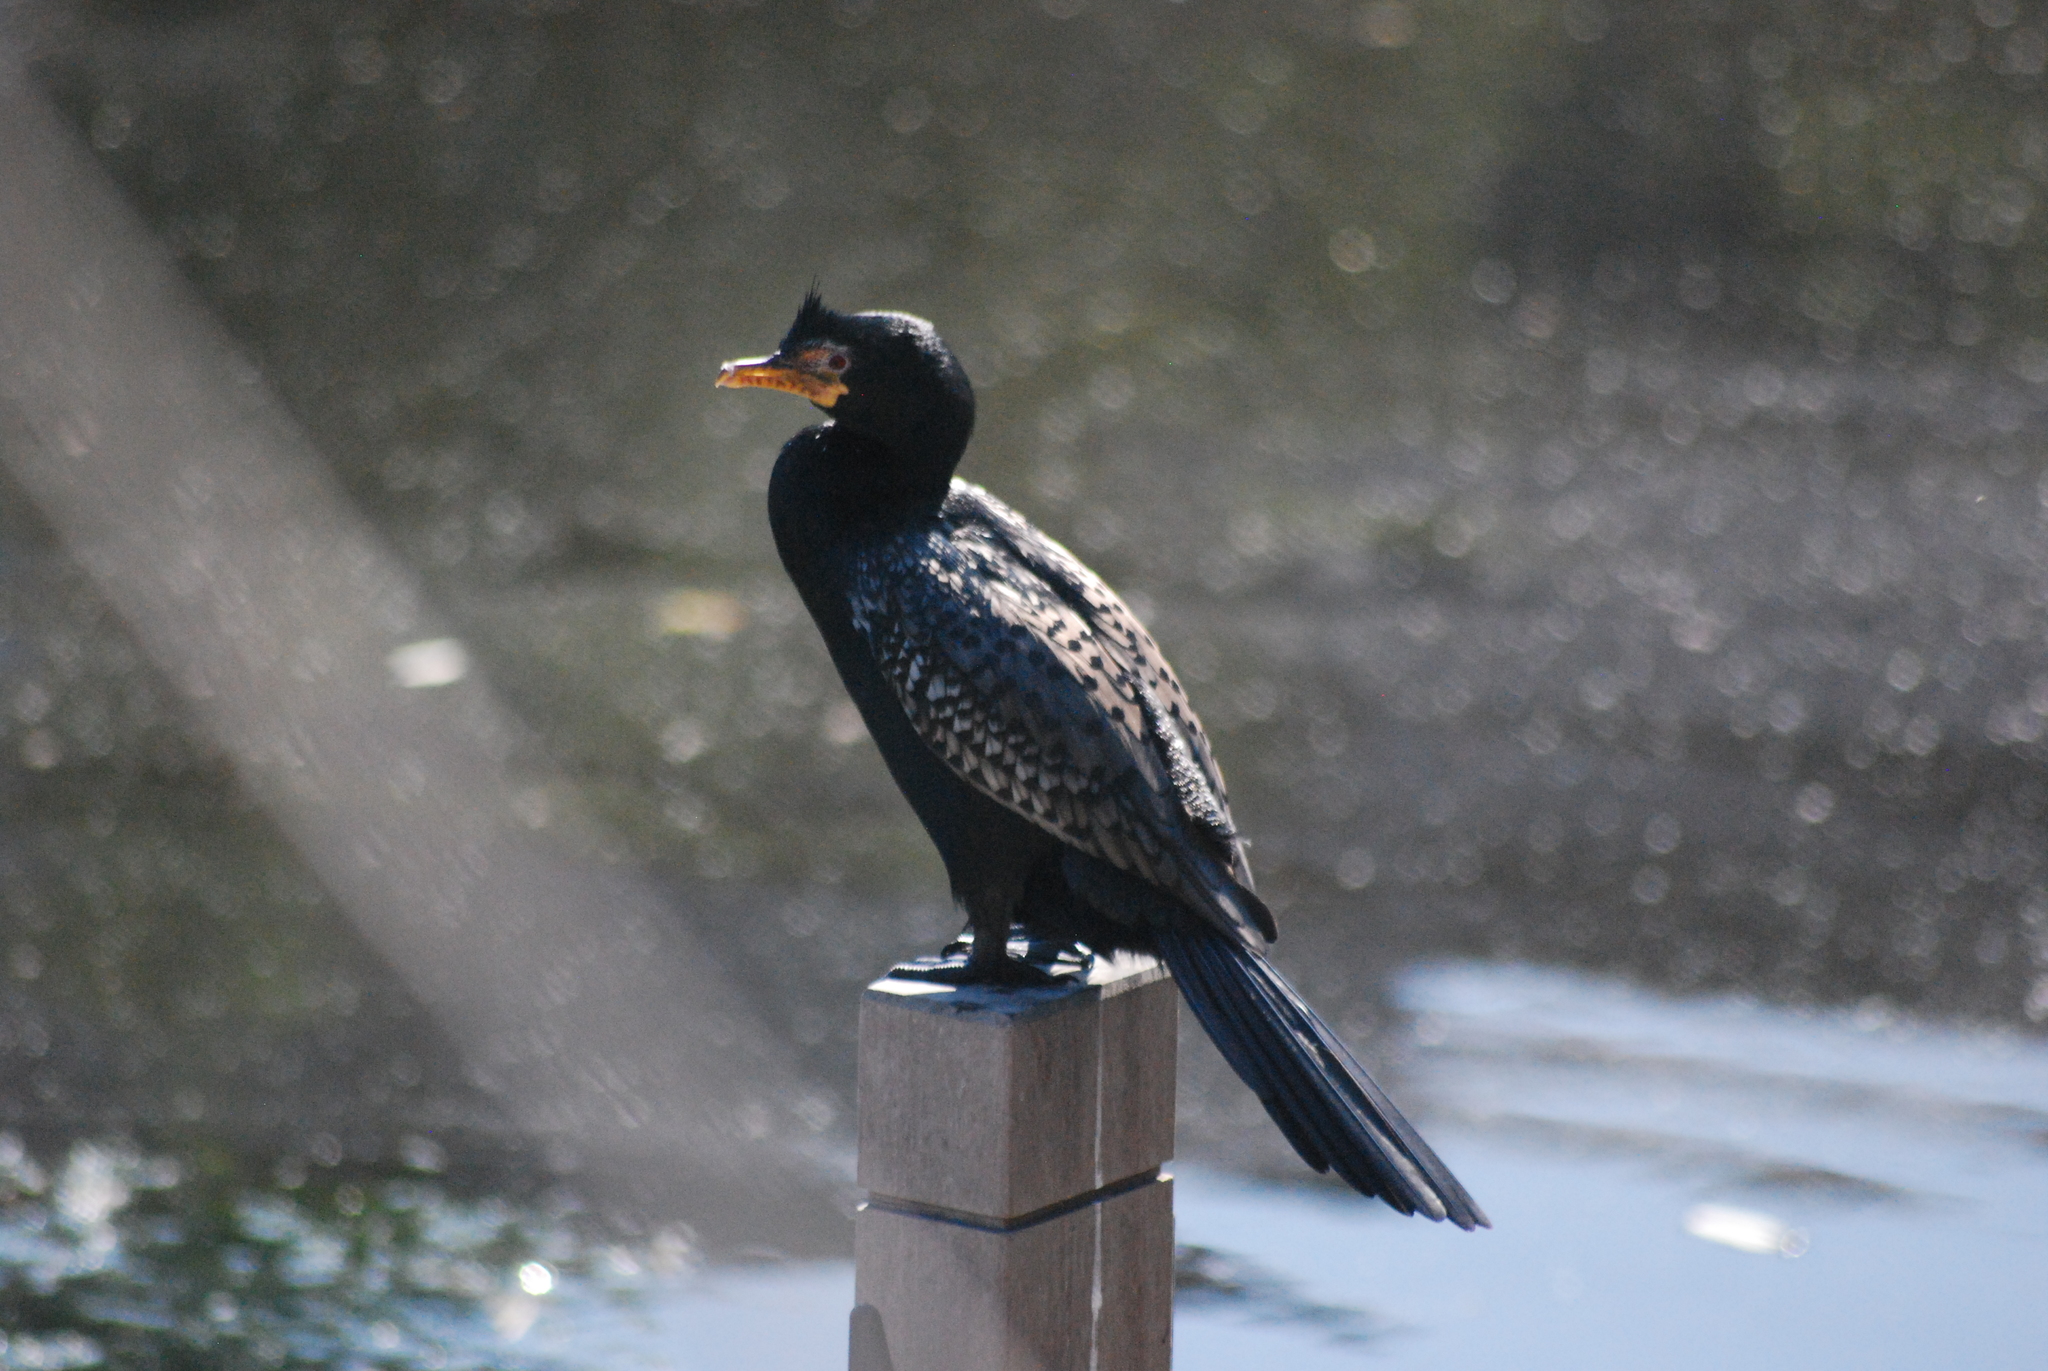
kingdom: Animalia
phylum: Chordata
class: Aves
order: Suliformes
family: Phalacrocoracidae
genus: Microcarbo
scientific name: Microcarbo africanus
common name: Long-tailed cormorant
